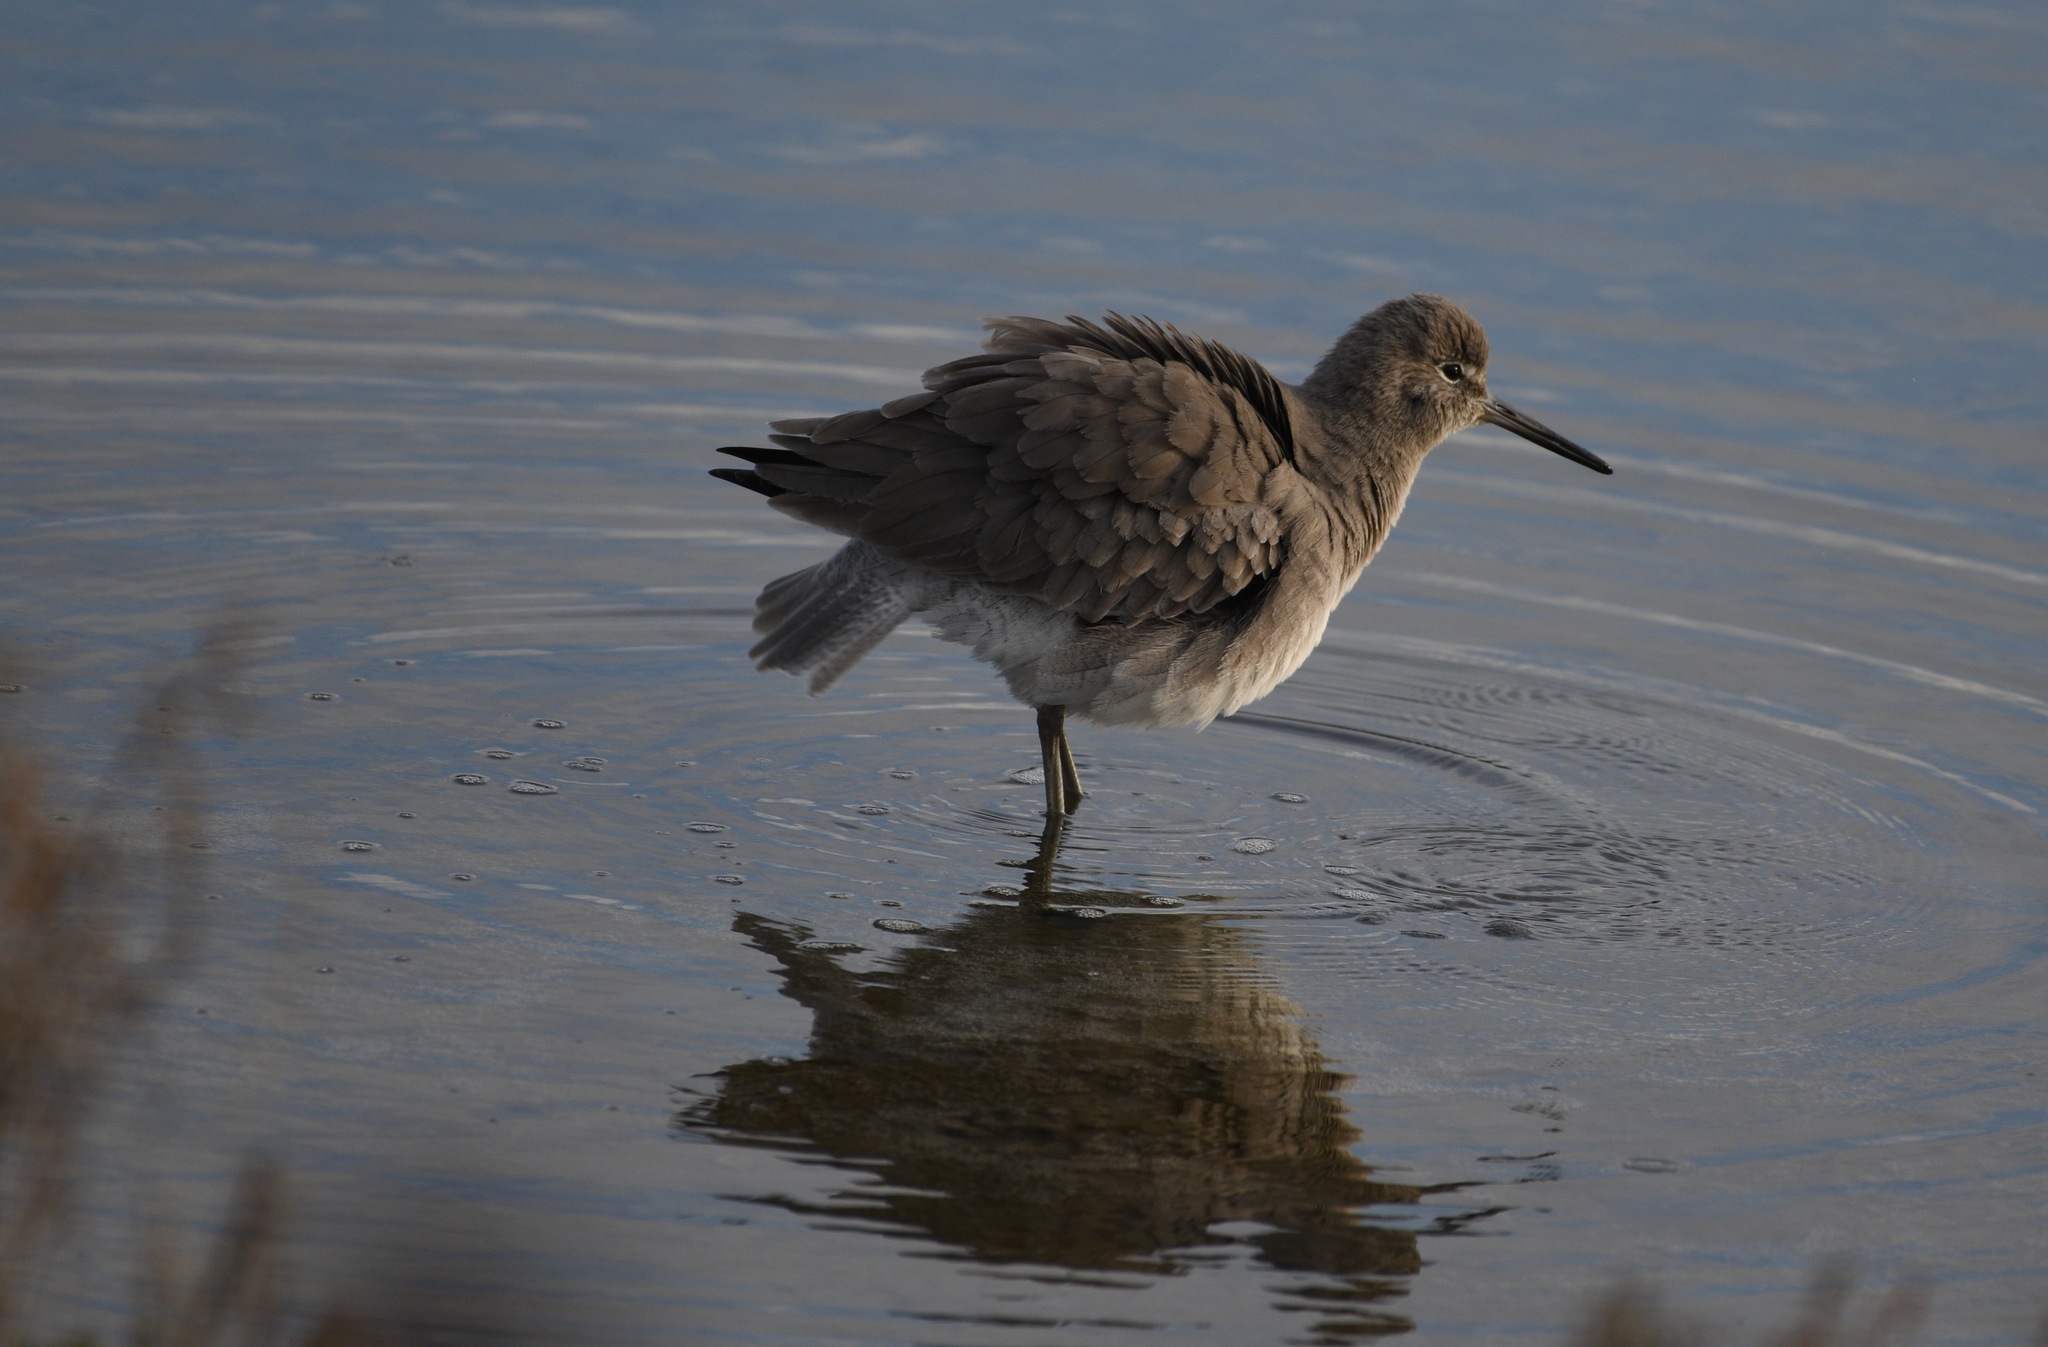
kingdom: Animalia
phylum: Chordata
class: Aves
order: Charadriiformes
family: Scolopacidae
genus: Tringa
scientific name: Tringa semipalmata
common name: Willet
